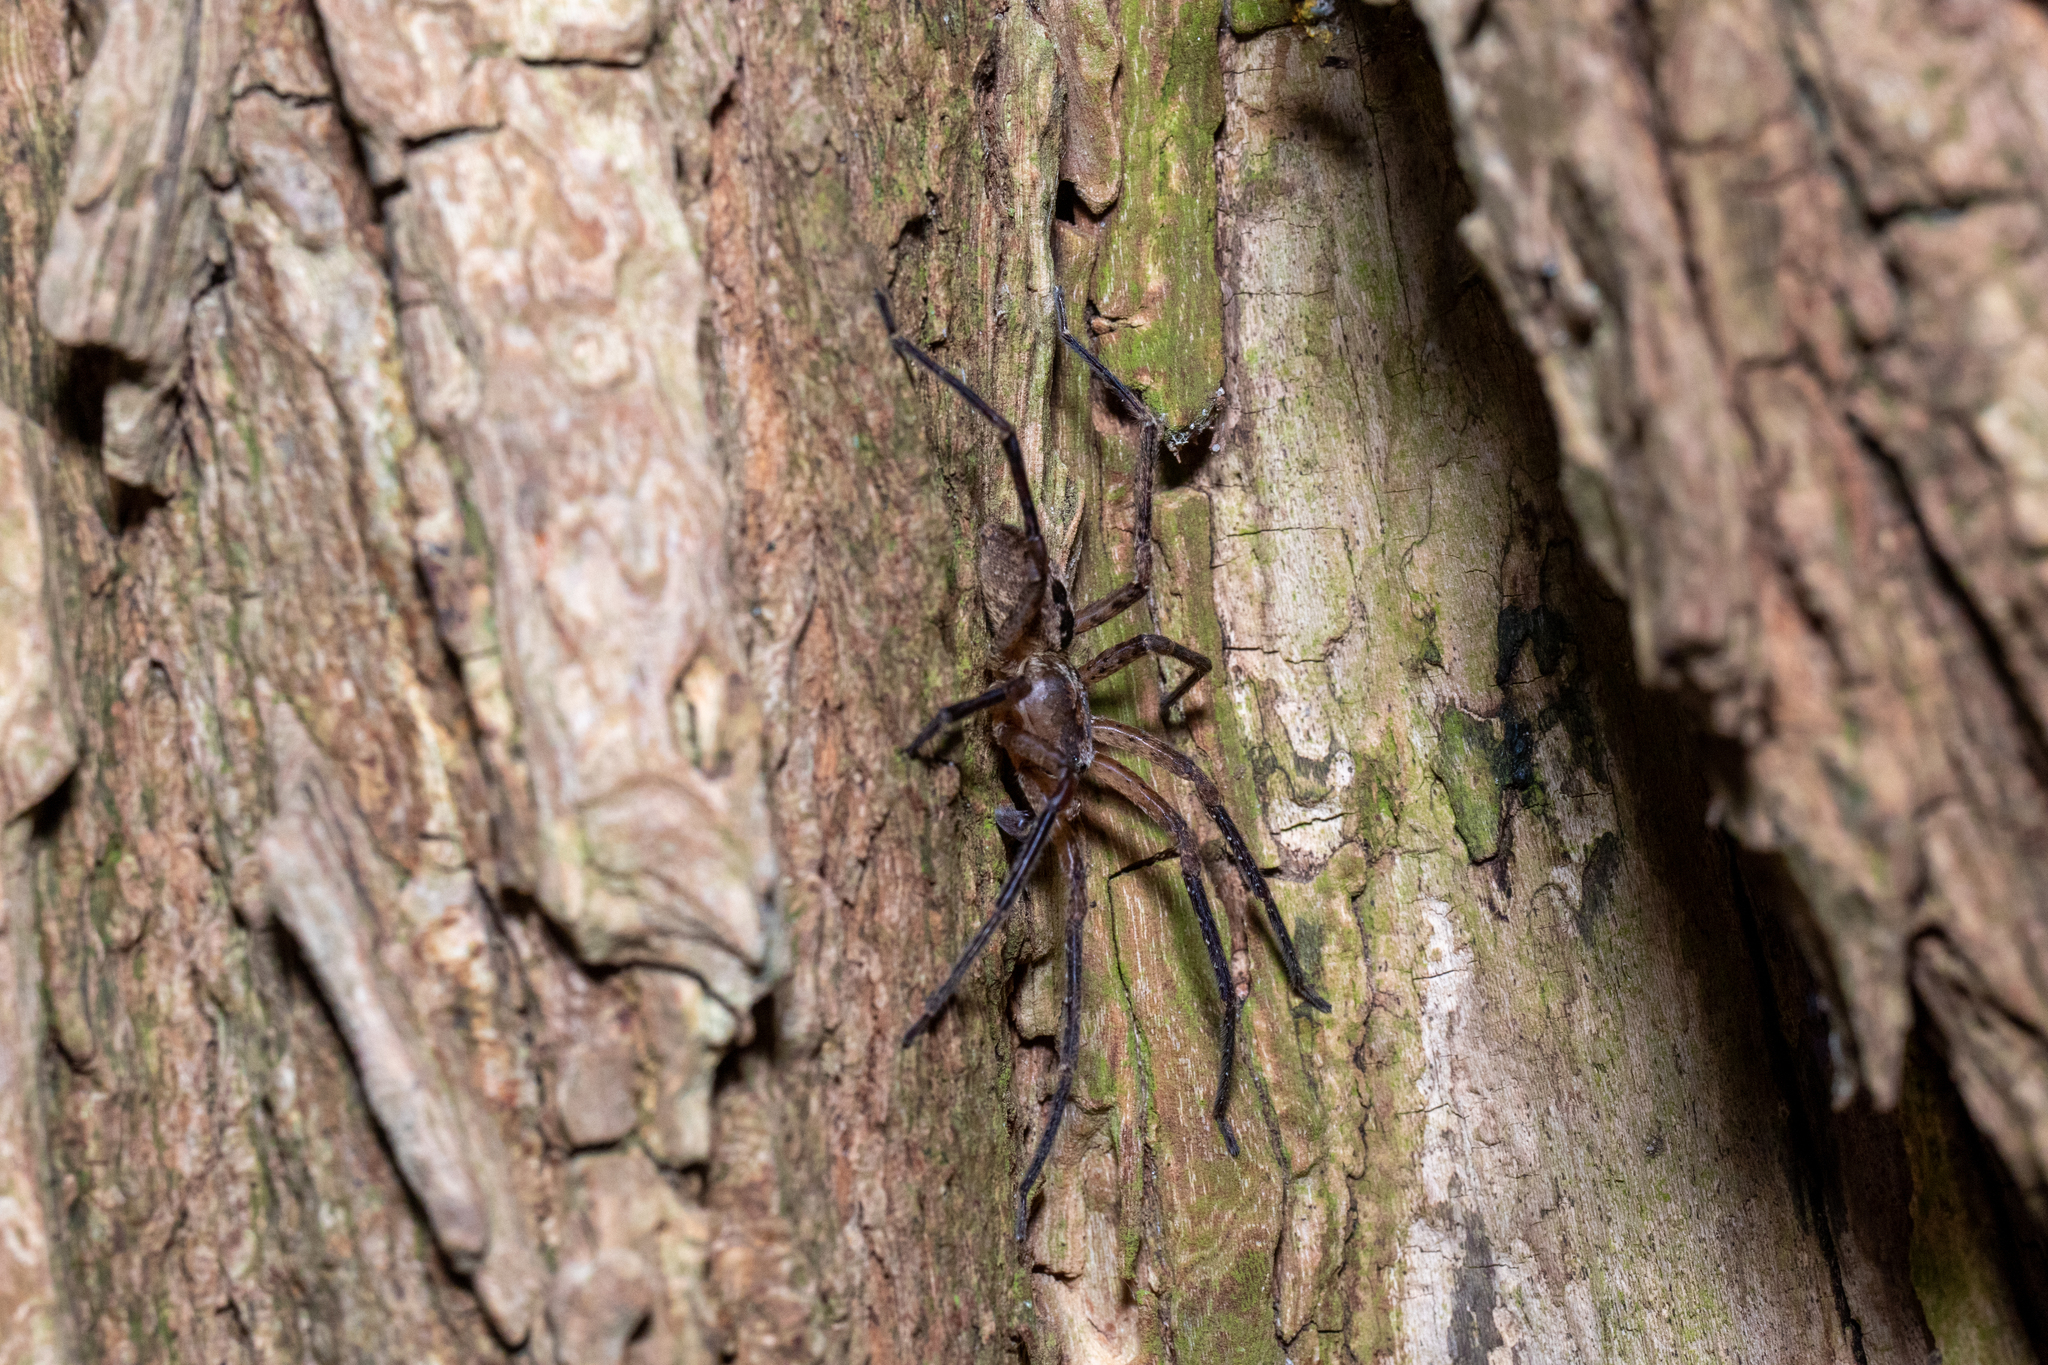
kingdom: Animalia
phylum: Arthropoda
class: Arachnida
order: Araneae
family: Zoropsidae
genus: Zoropsis
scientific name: Zoropsis spinimana
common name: Zoropsid spider
